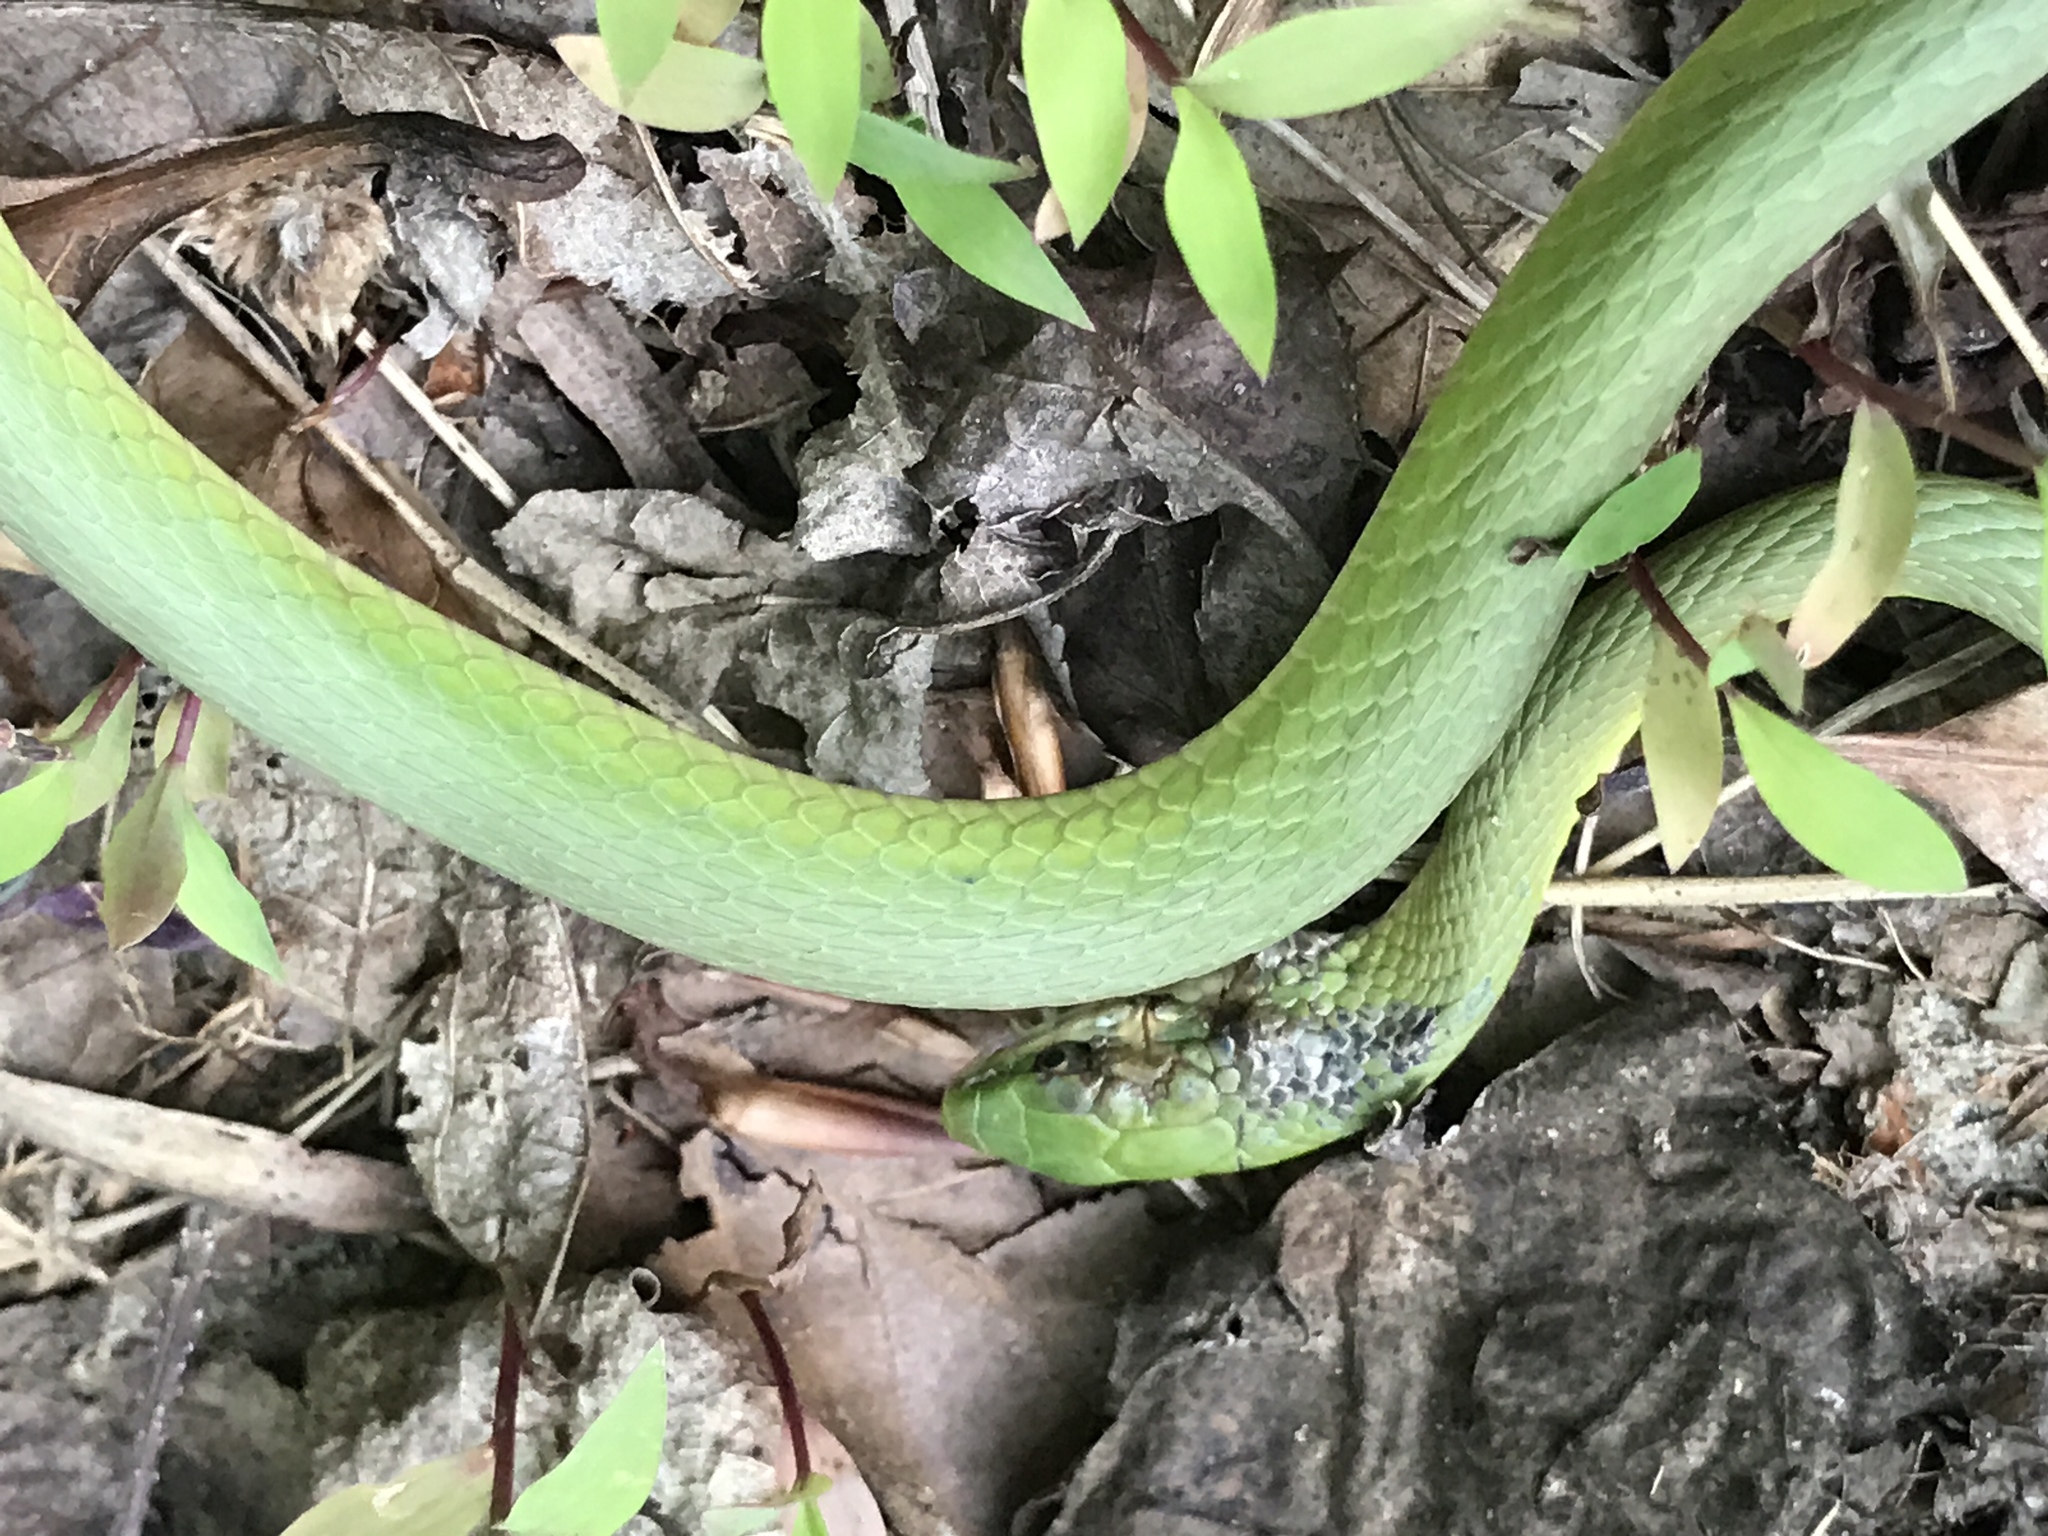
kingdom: Animalia
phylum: Chordata
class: Squamata
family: Colubridae
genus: Opheodrys
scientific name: Opheodrys aestivus
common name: Rough greensnake
